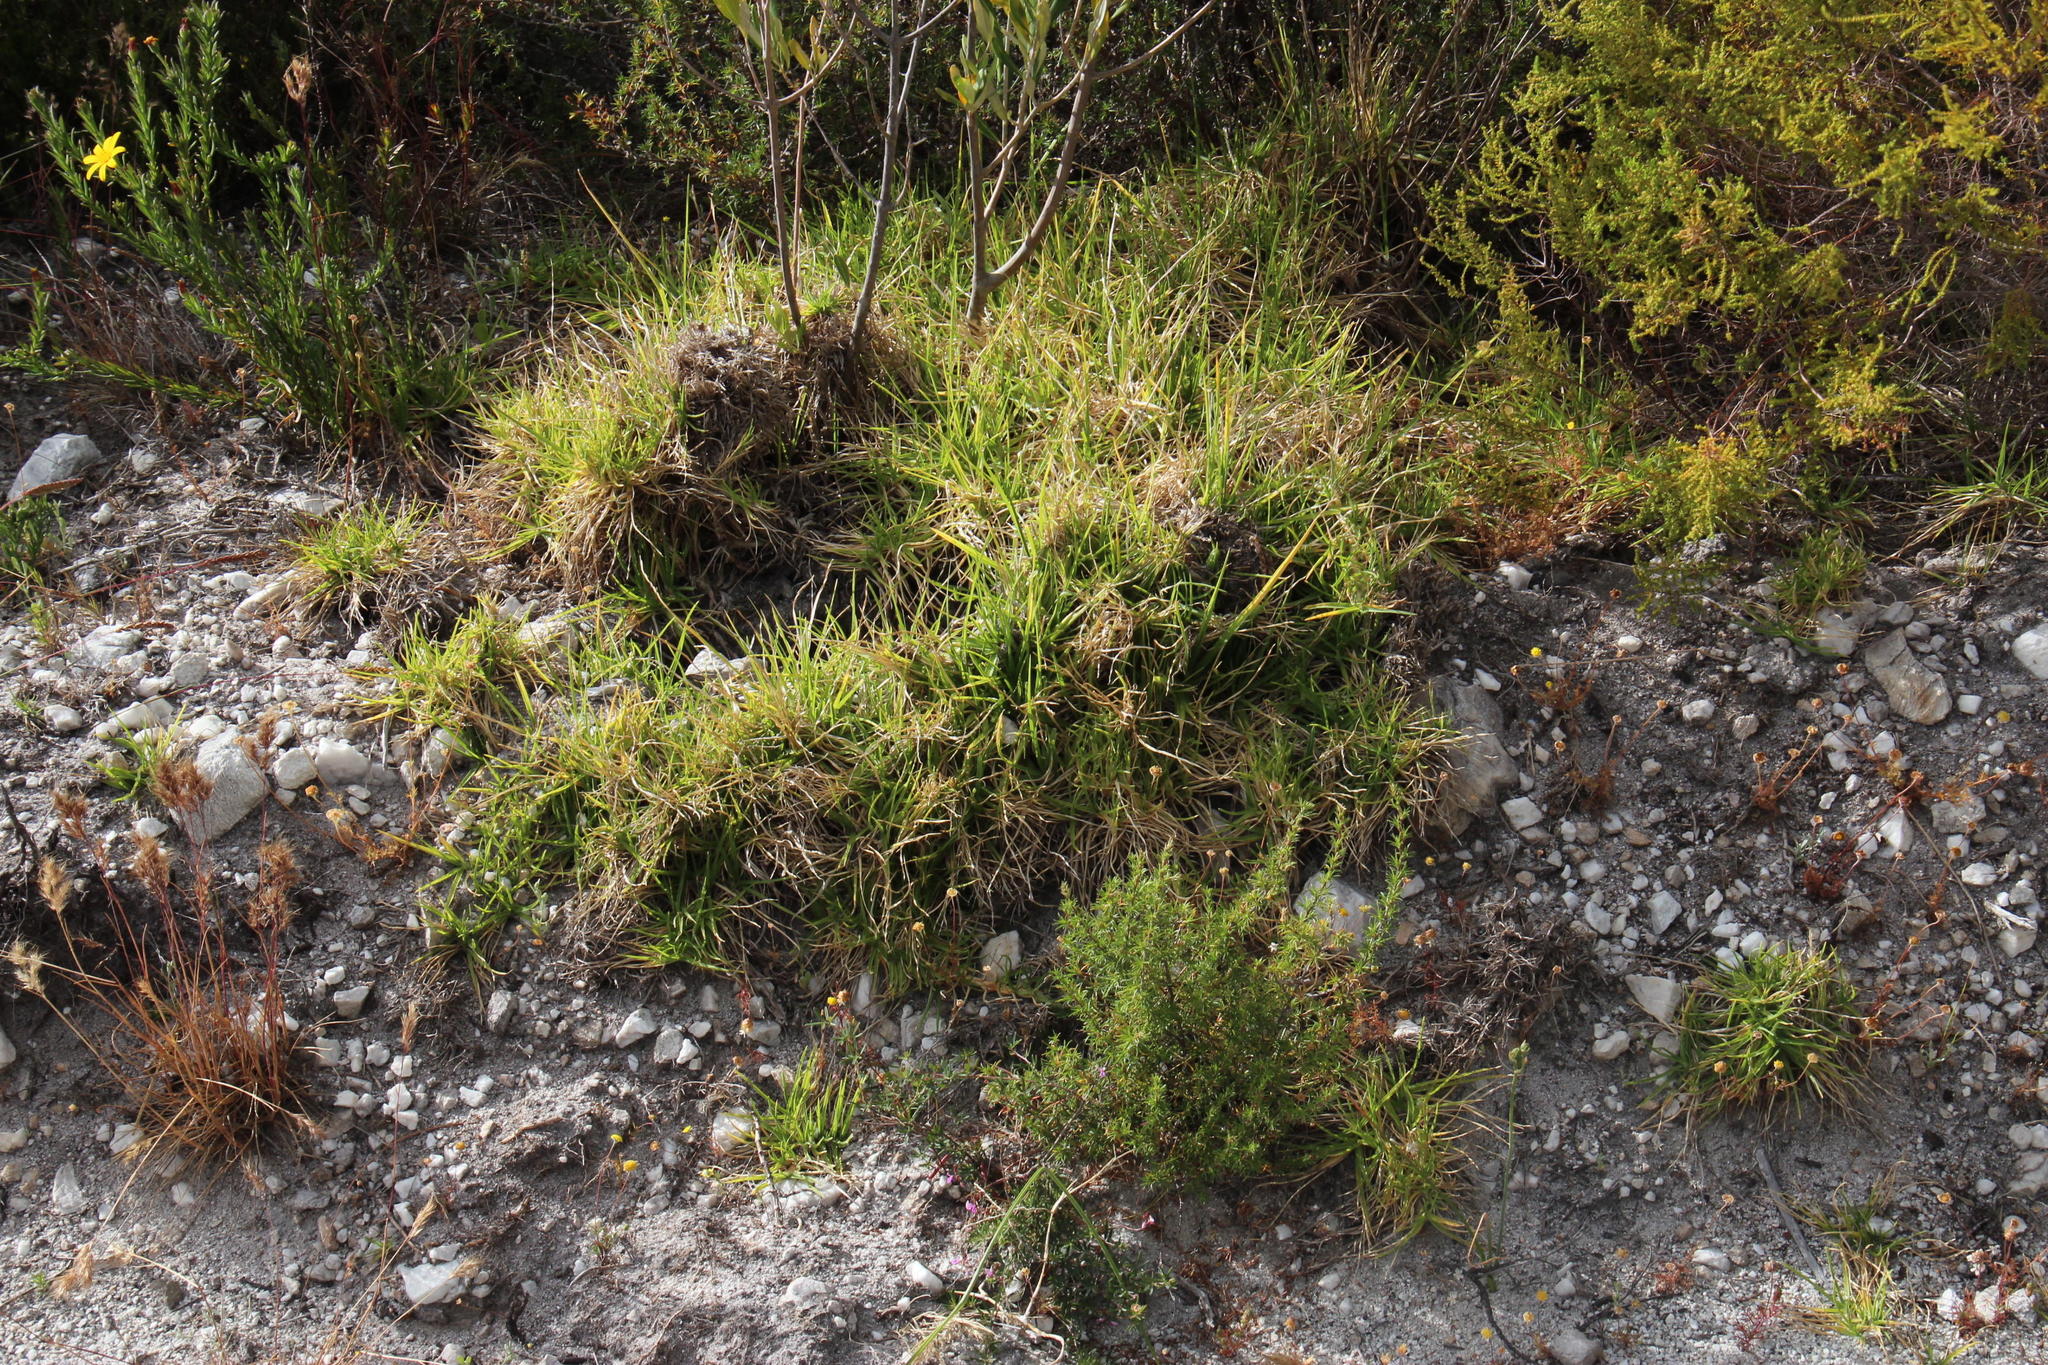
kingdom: Plantae
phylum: Tracheophyta
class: Liliopsida
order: Poales
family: Poaceae
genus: Cenchrus
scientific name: Cenchrus clandestinus
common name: Kikuyugrass
